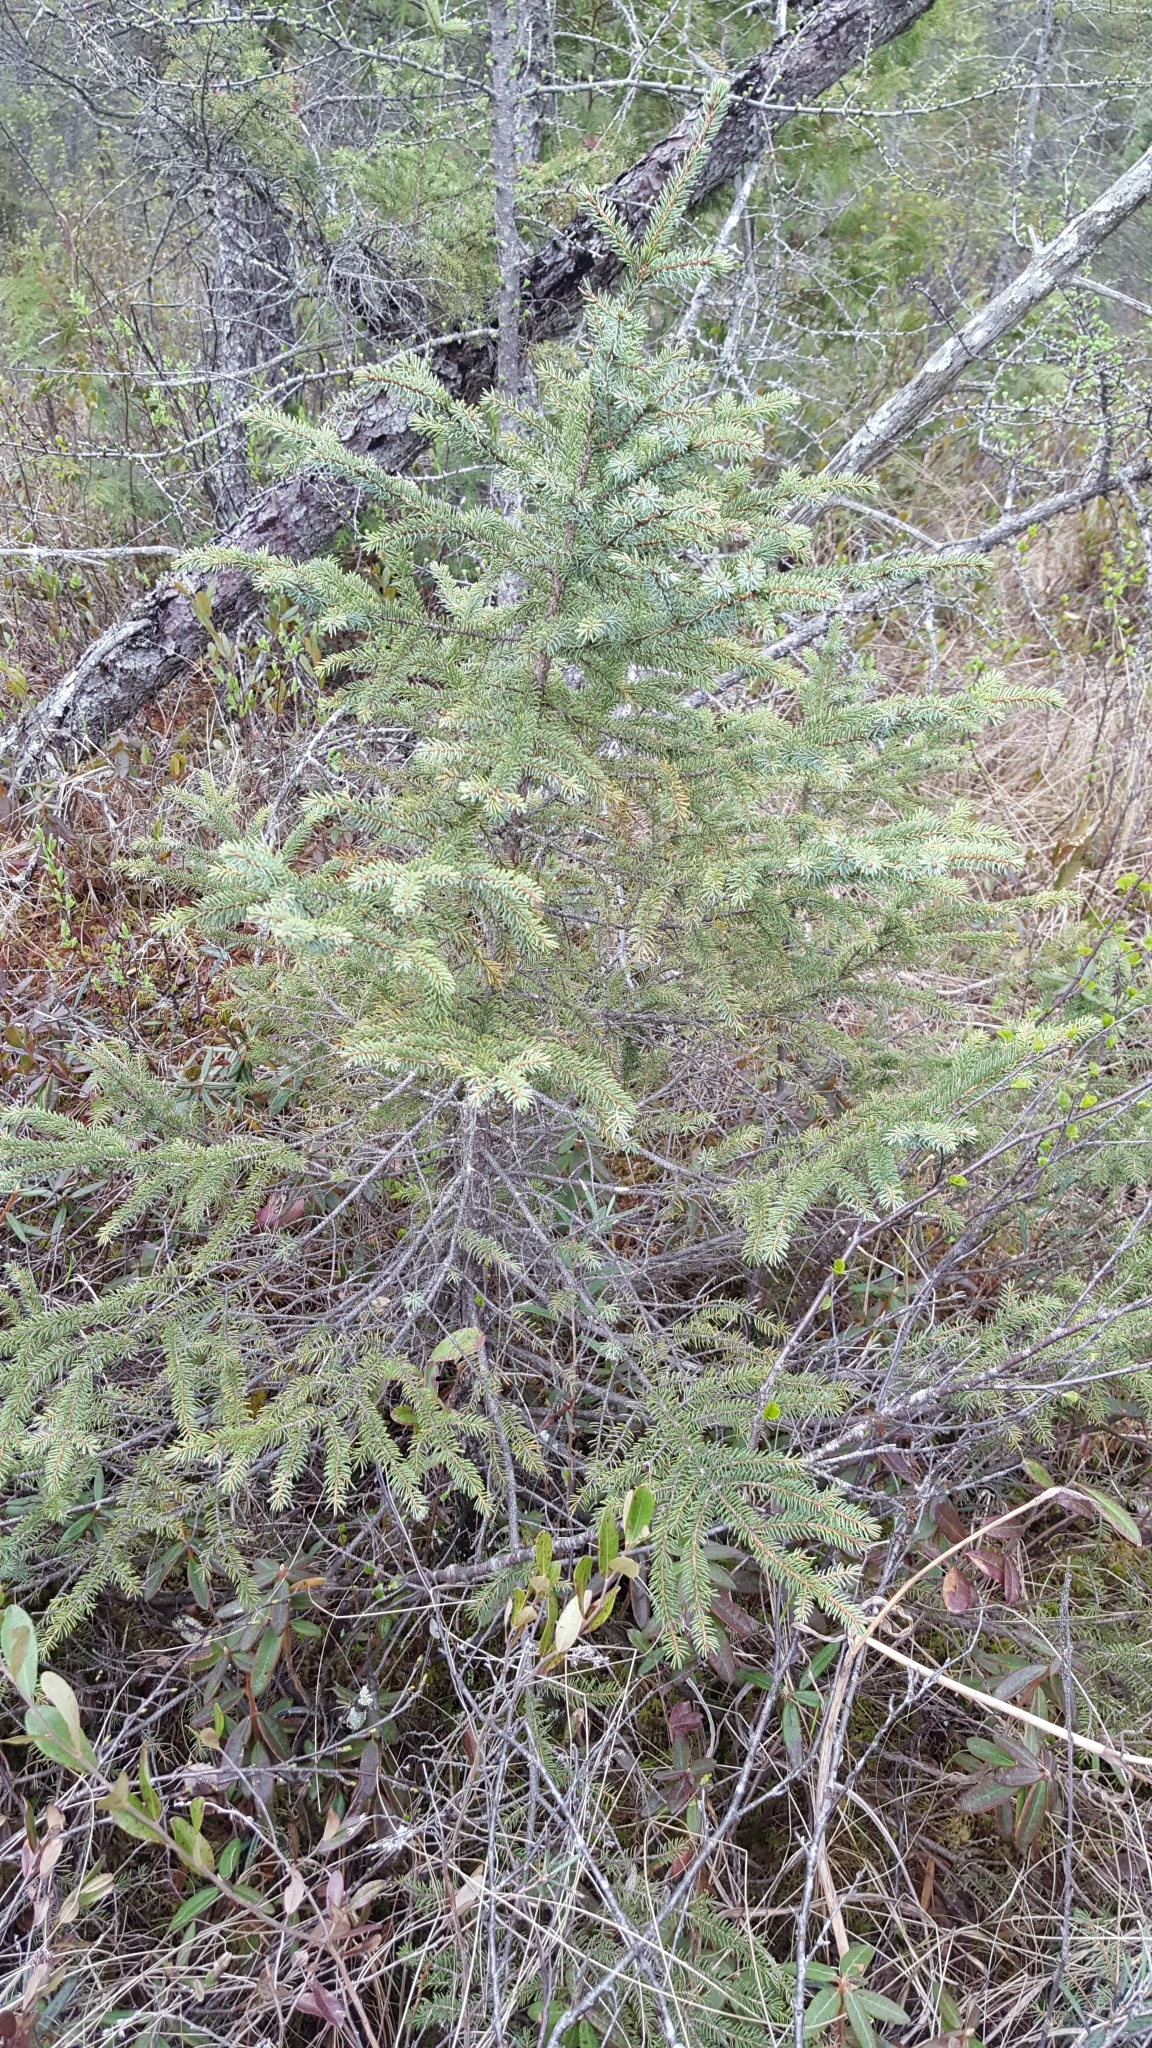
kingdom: Plantae
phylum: Tracheophyta
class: Pinopsida
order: Pinales
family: Pinaceae
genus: Picea
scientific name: Picea mariana
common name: Black spruce
